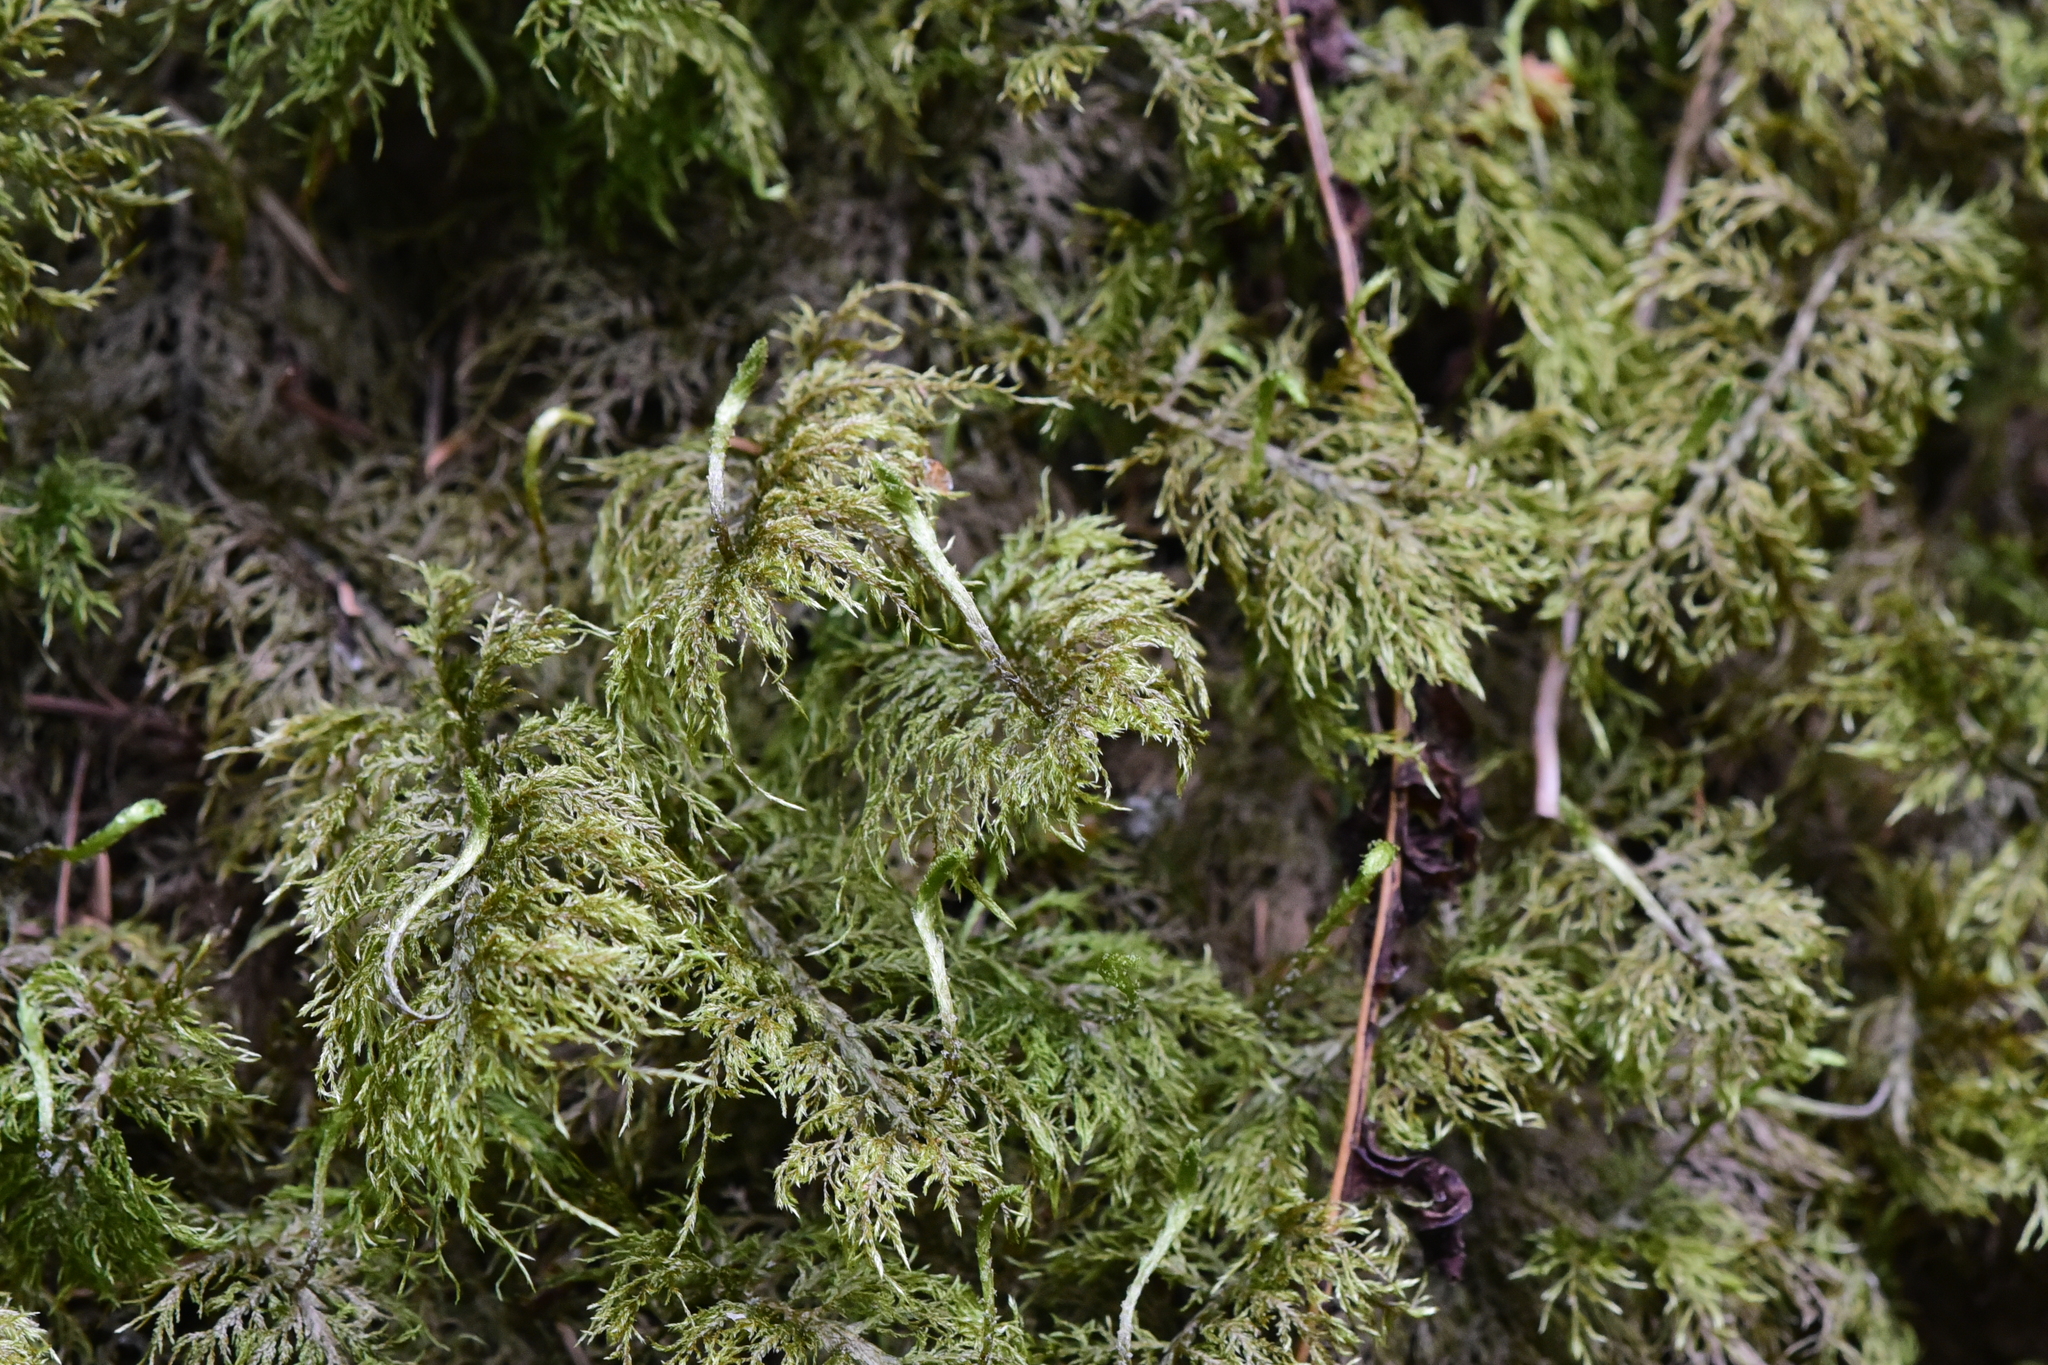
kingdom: Plantae
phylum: Bryophyta
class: Bryopsida
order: Hypnales
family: Hylocomiaceae
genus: Hylocomium
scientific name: Hylocomium splendens
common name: Stairstep moss
